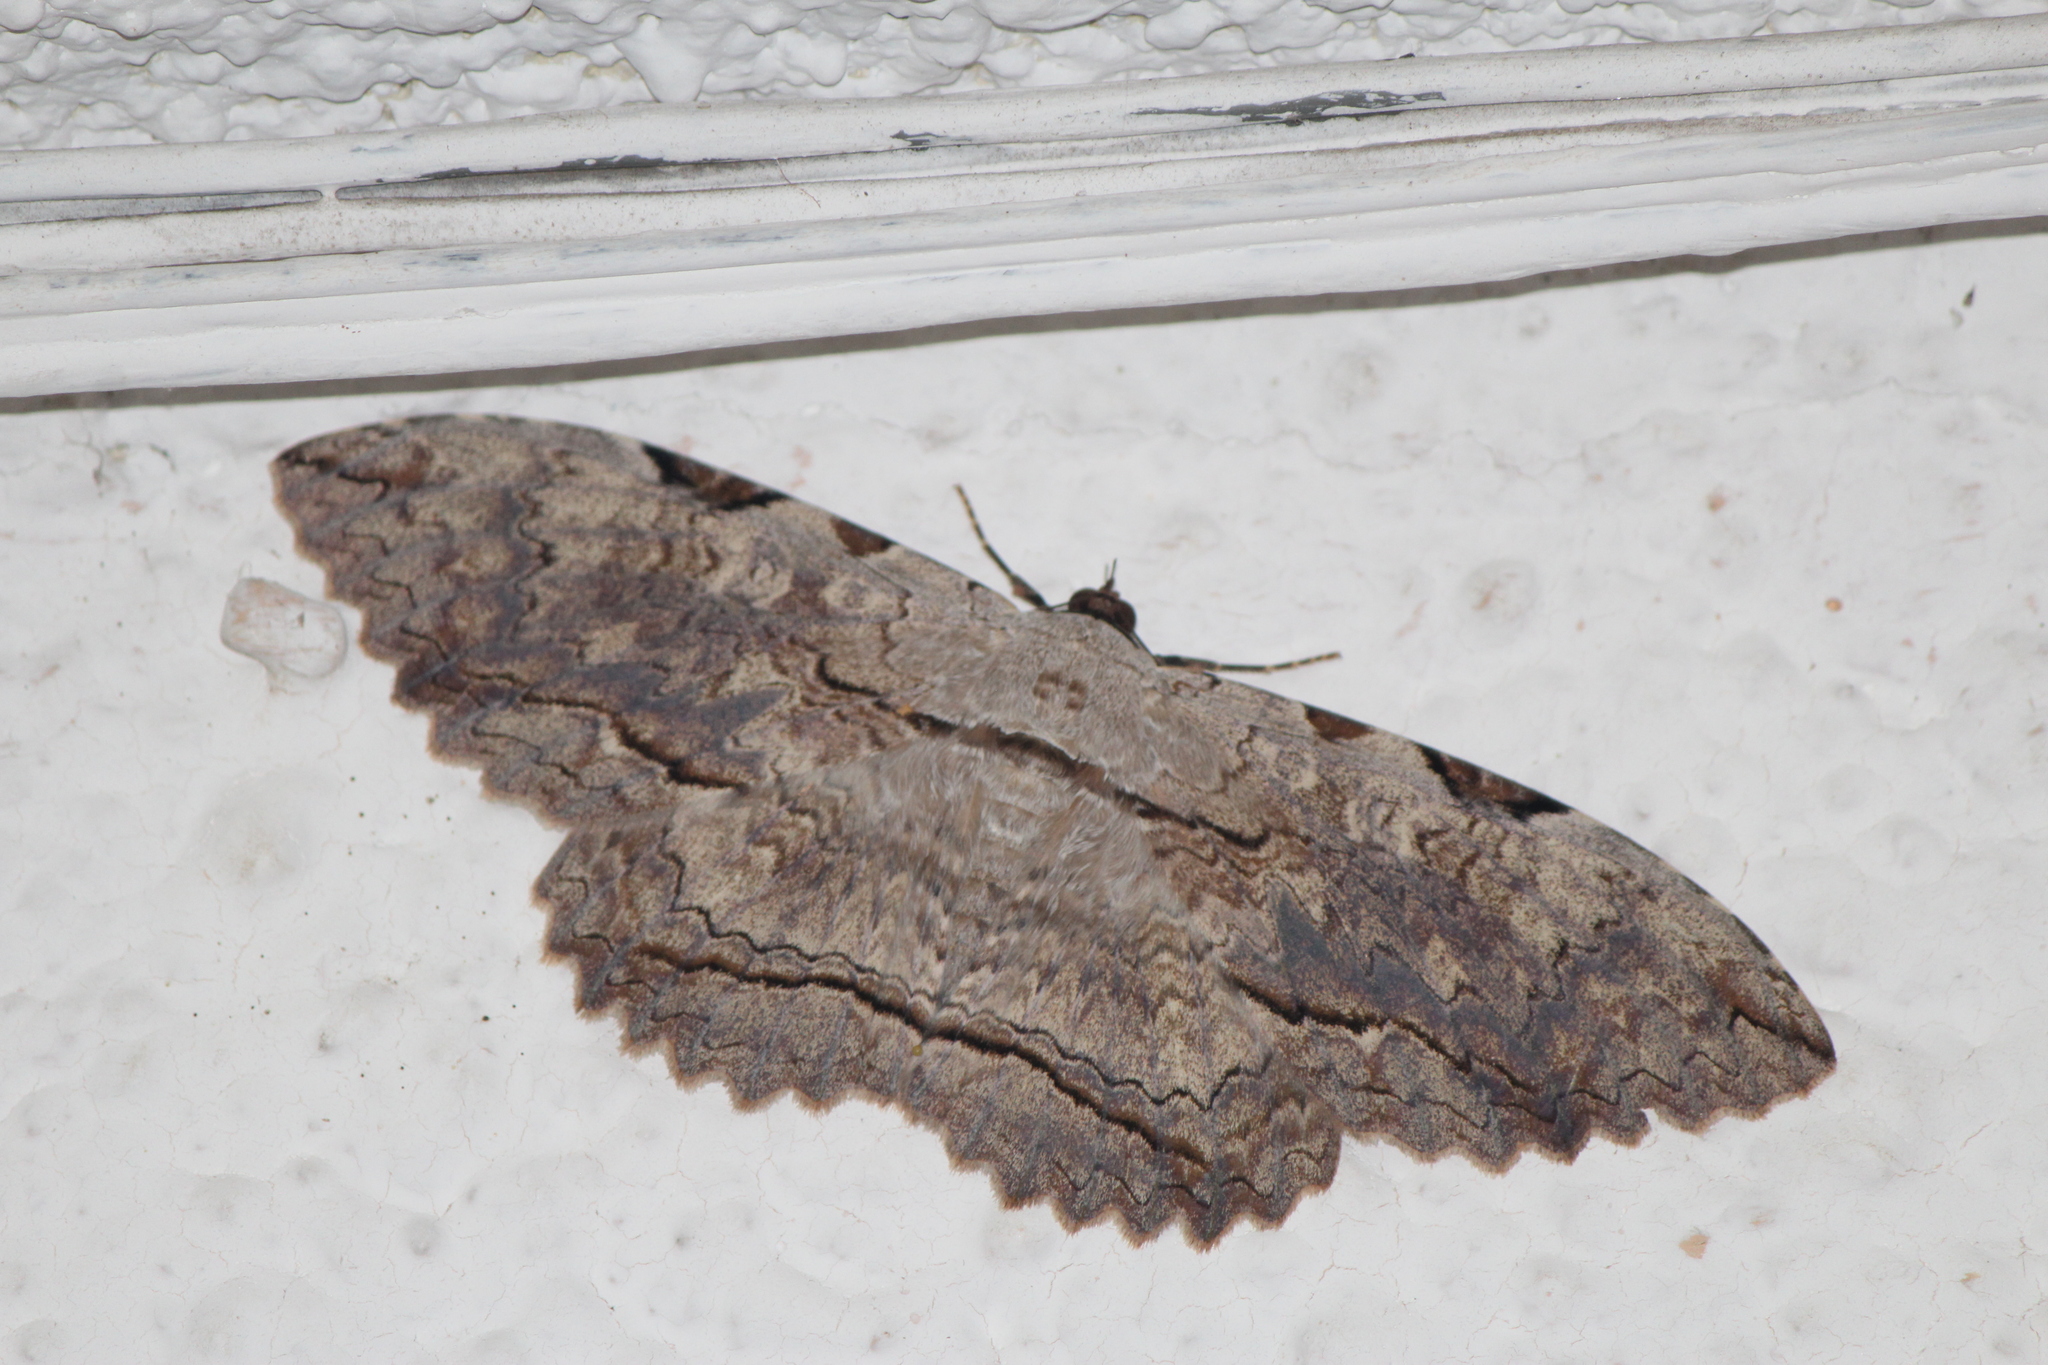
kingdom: Animalia
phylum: Arthropoda
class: Insecta
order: Lepidoptera
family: Erebidae
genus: Thysania
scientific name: Thysania zenobia
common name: Owl moth
